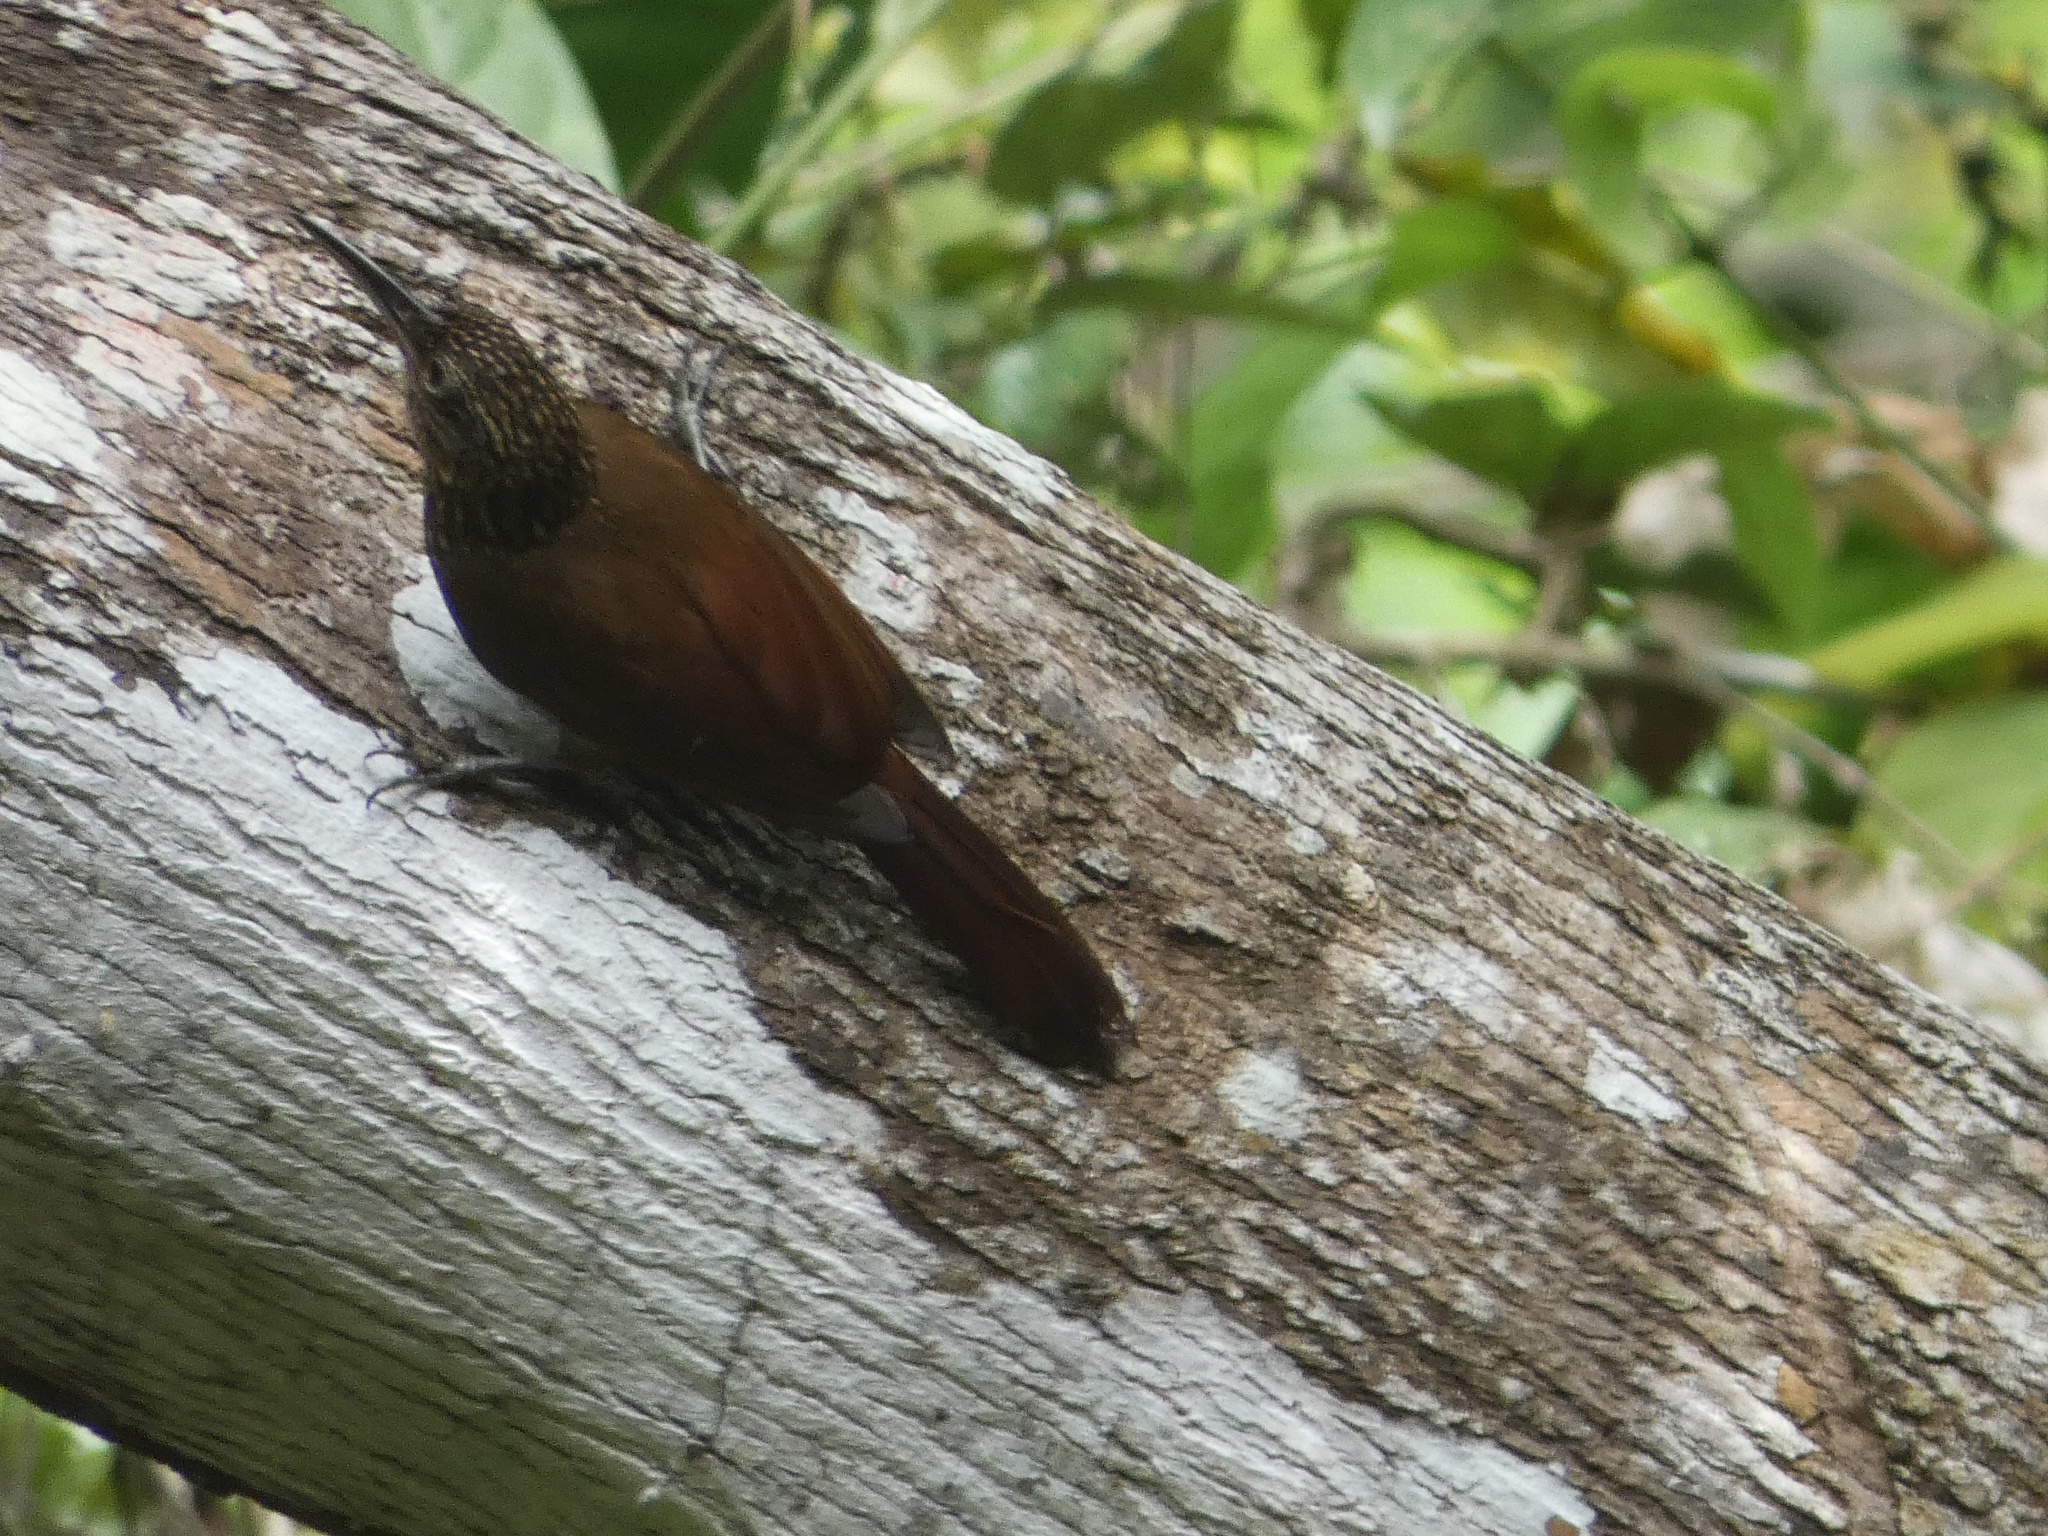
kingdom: Animalia
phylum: Chordata
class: Aves
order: Passeriformes
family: Furnariidae
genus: Xiphorhynchus
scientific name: Xiphorhynchus susurrans
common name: Cocoa woodcreeper
